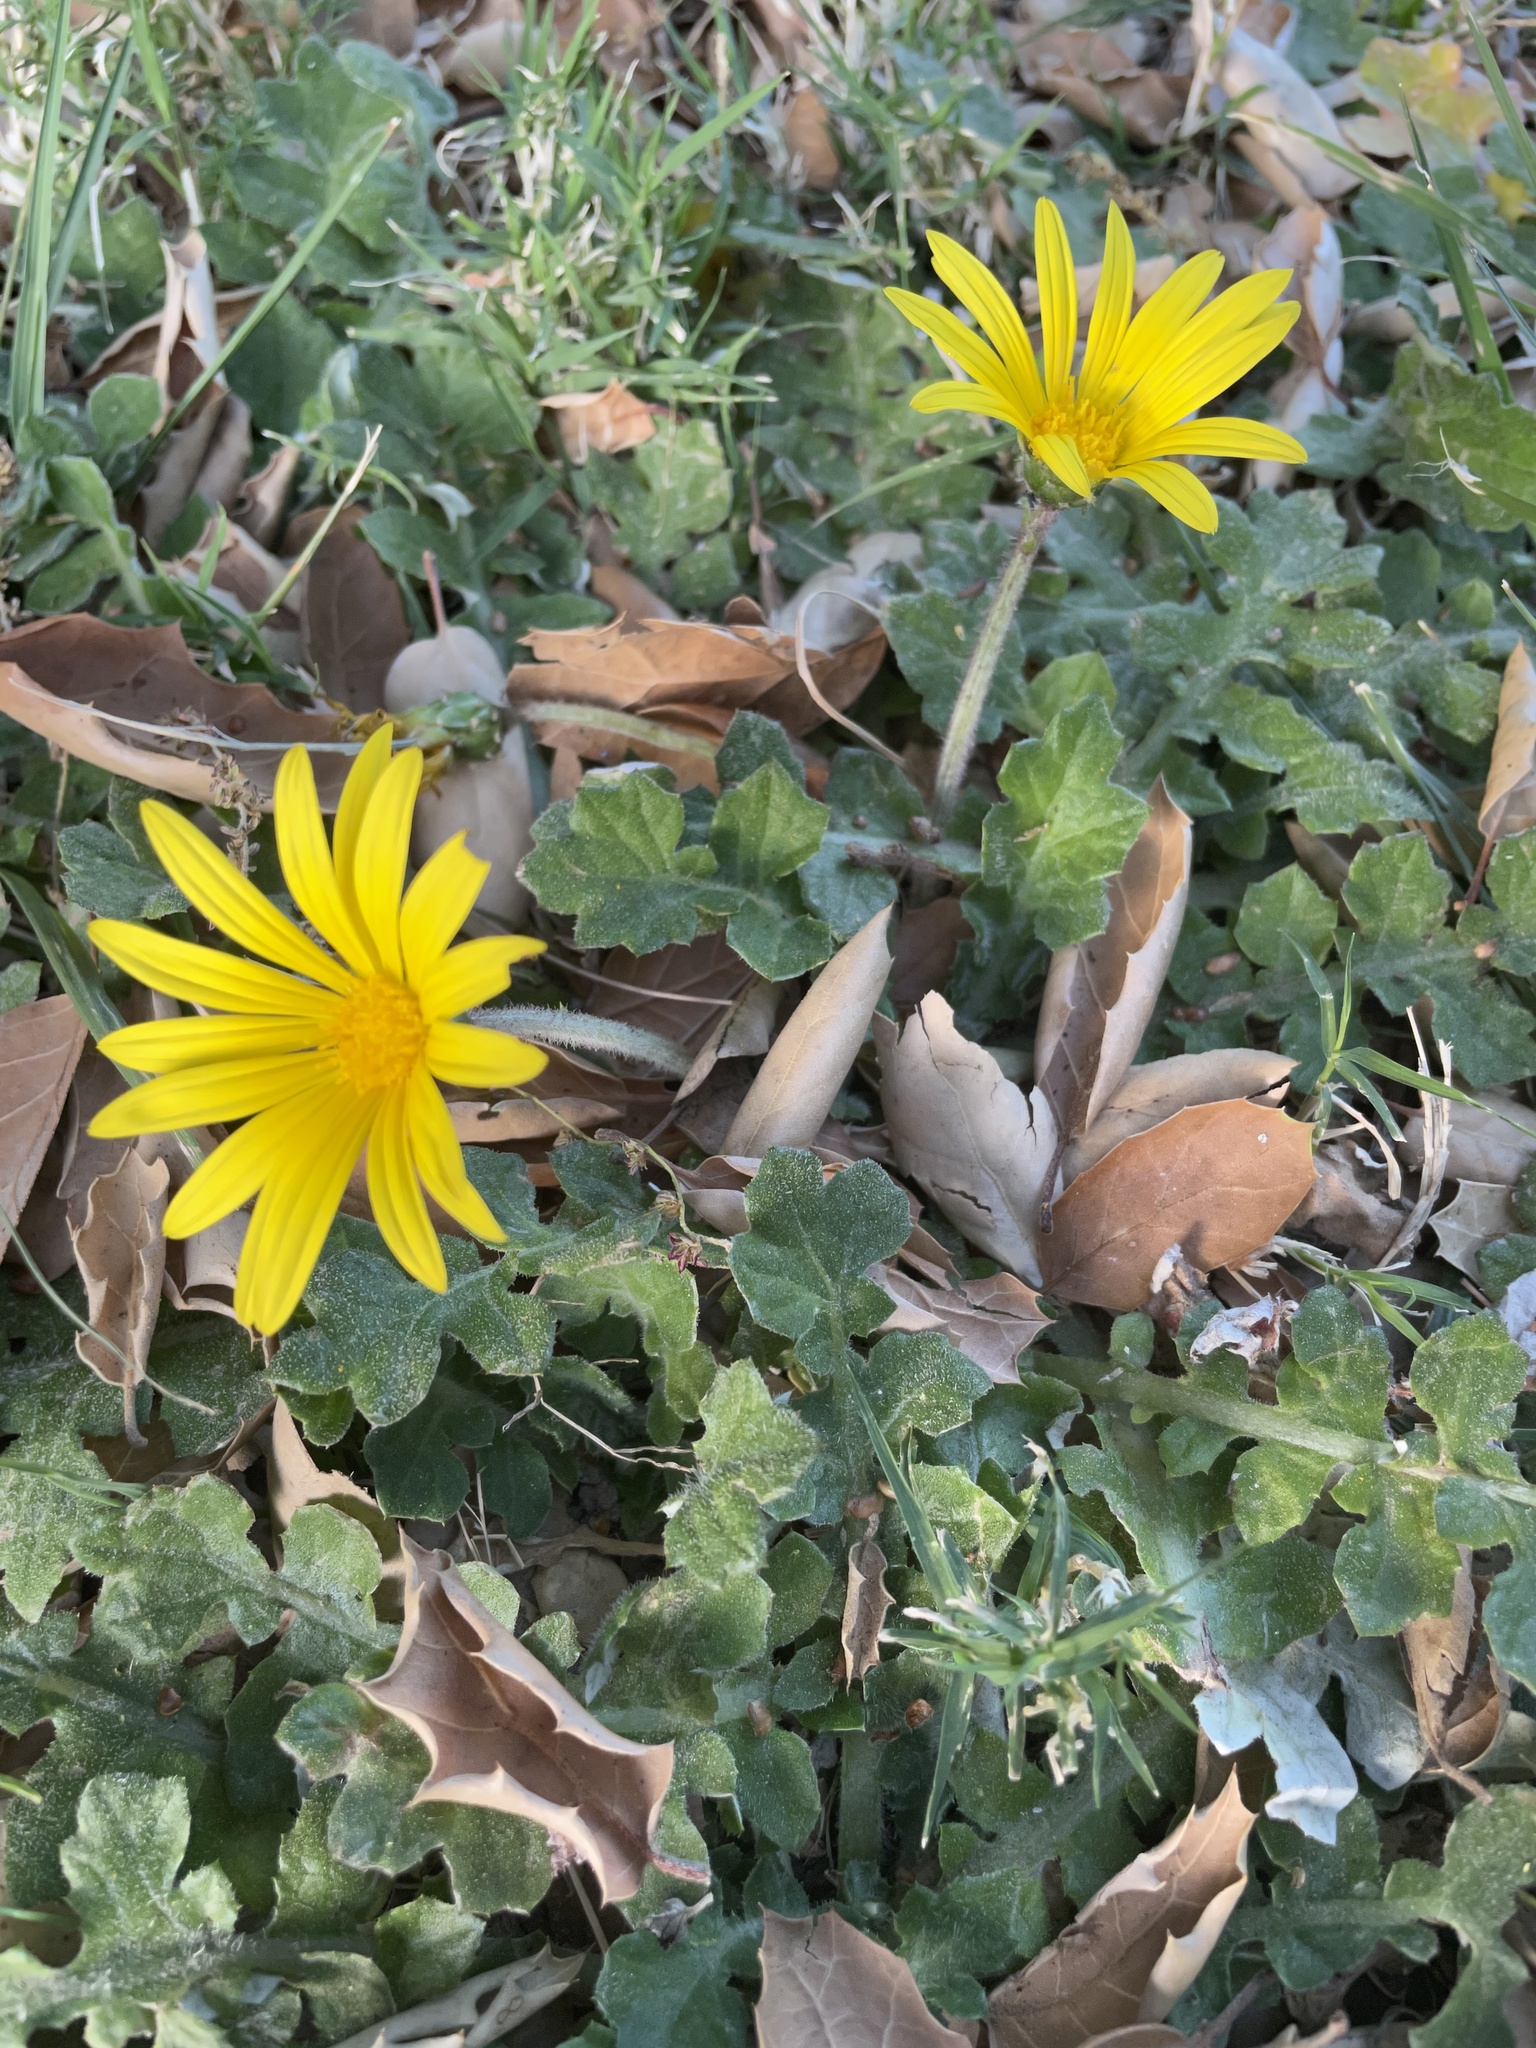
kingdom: Plantae
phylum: Tracheophyta
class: Magnoliopsida
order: Asterales
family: Asteraceae
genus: Arctotheca
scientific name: Arctotheca prostrata
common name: Capeweed
